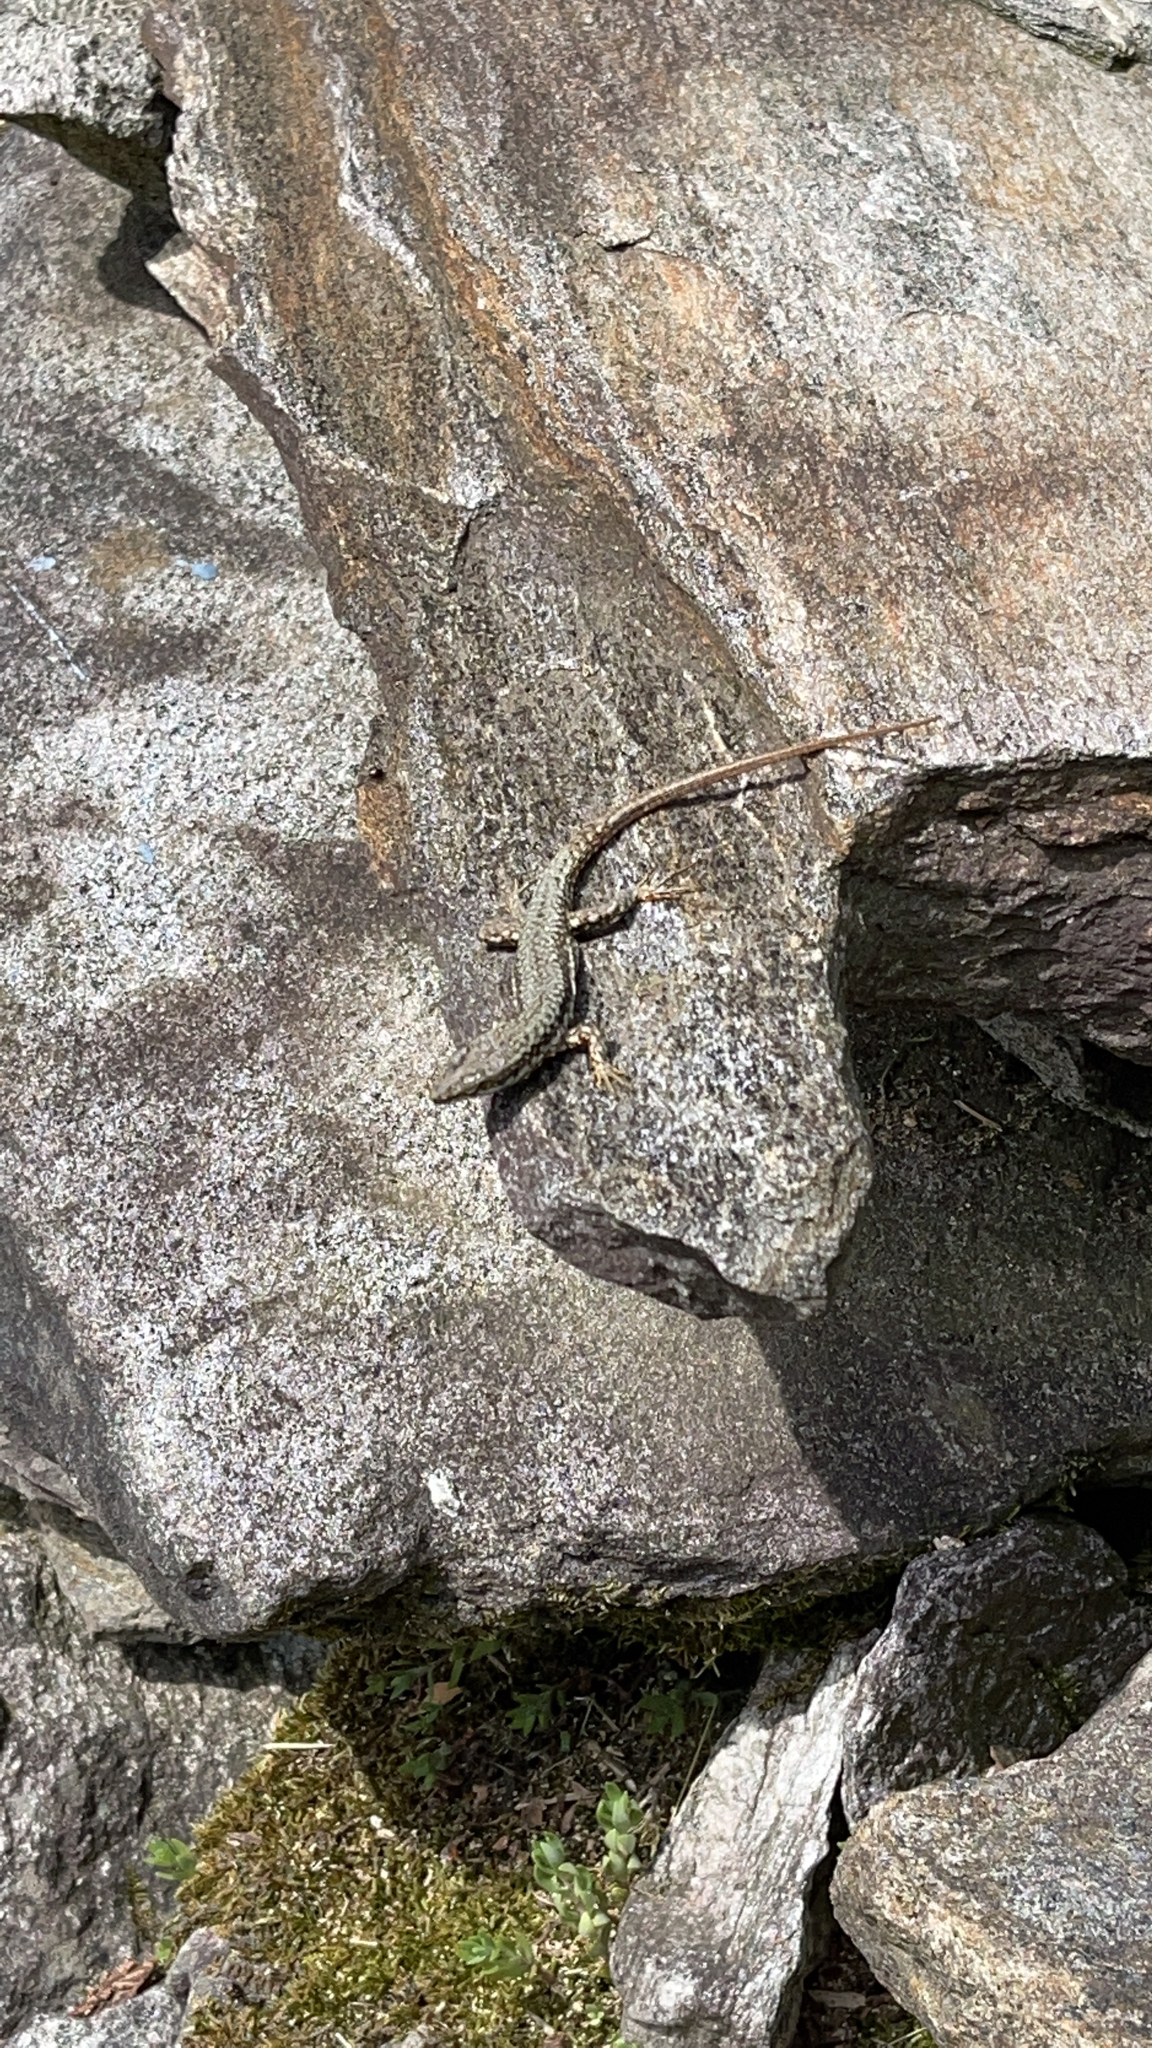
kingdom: Animalia
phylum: Chordata
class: Squamata
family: Lacertidae
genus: Podarcis
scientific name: Podarcis muralis
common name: Common wall lizard
